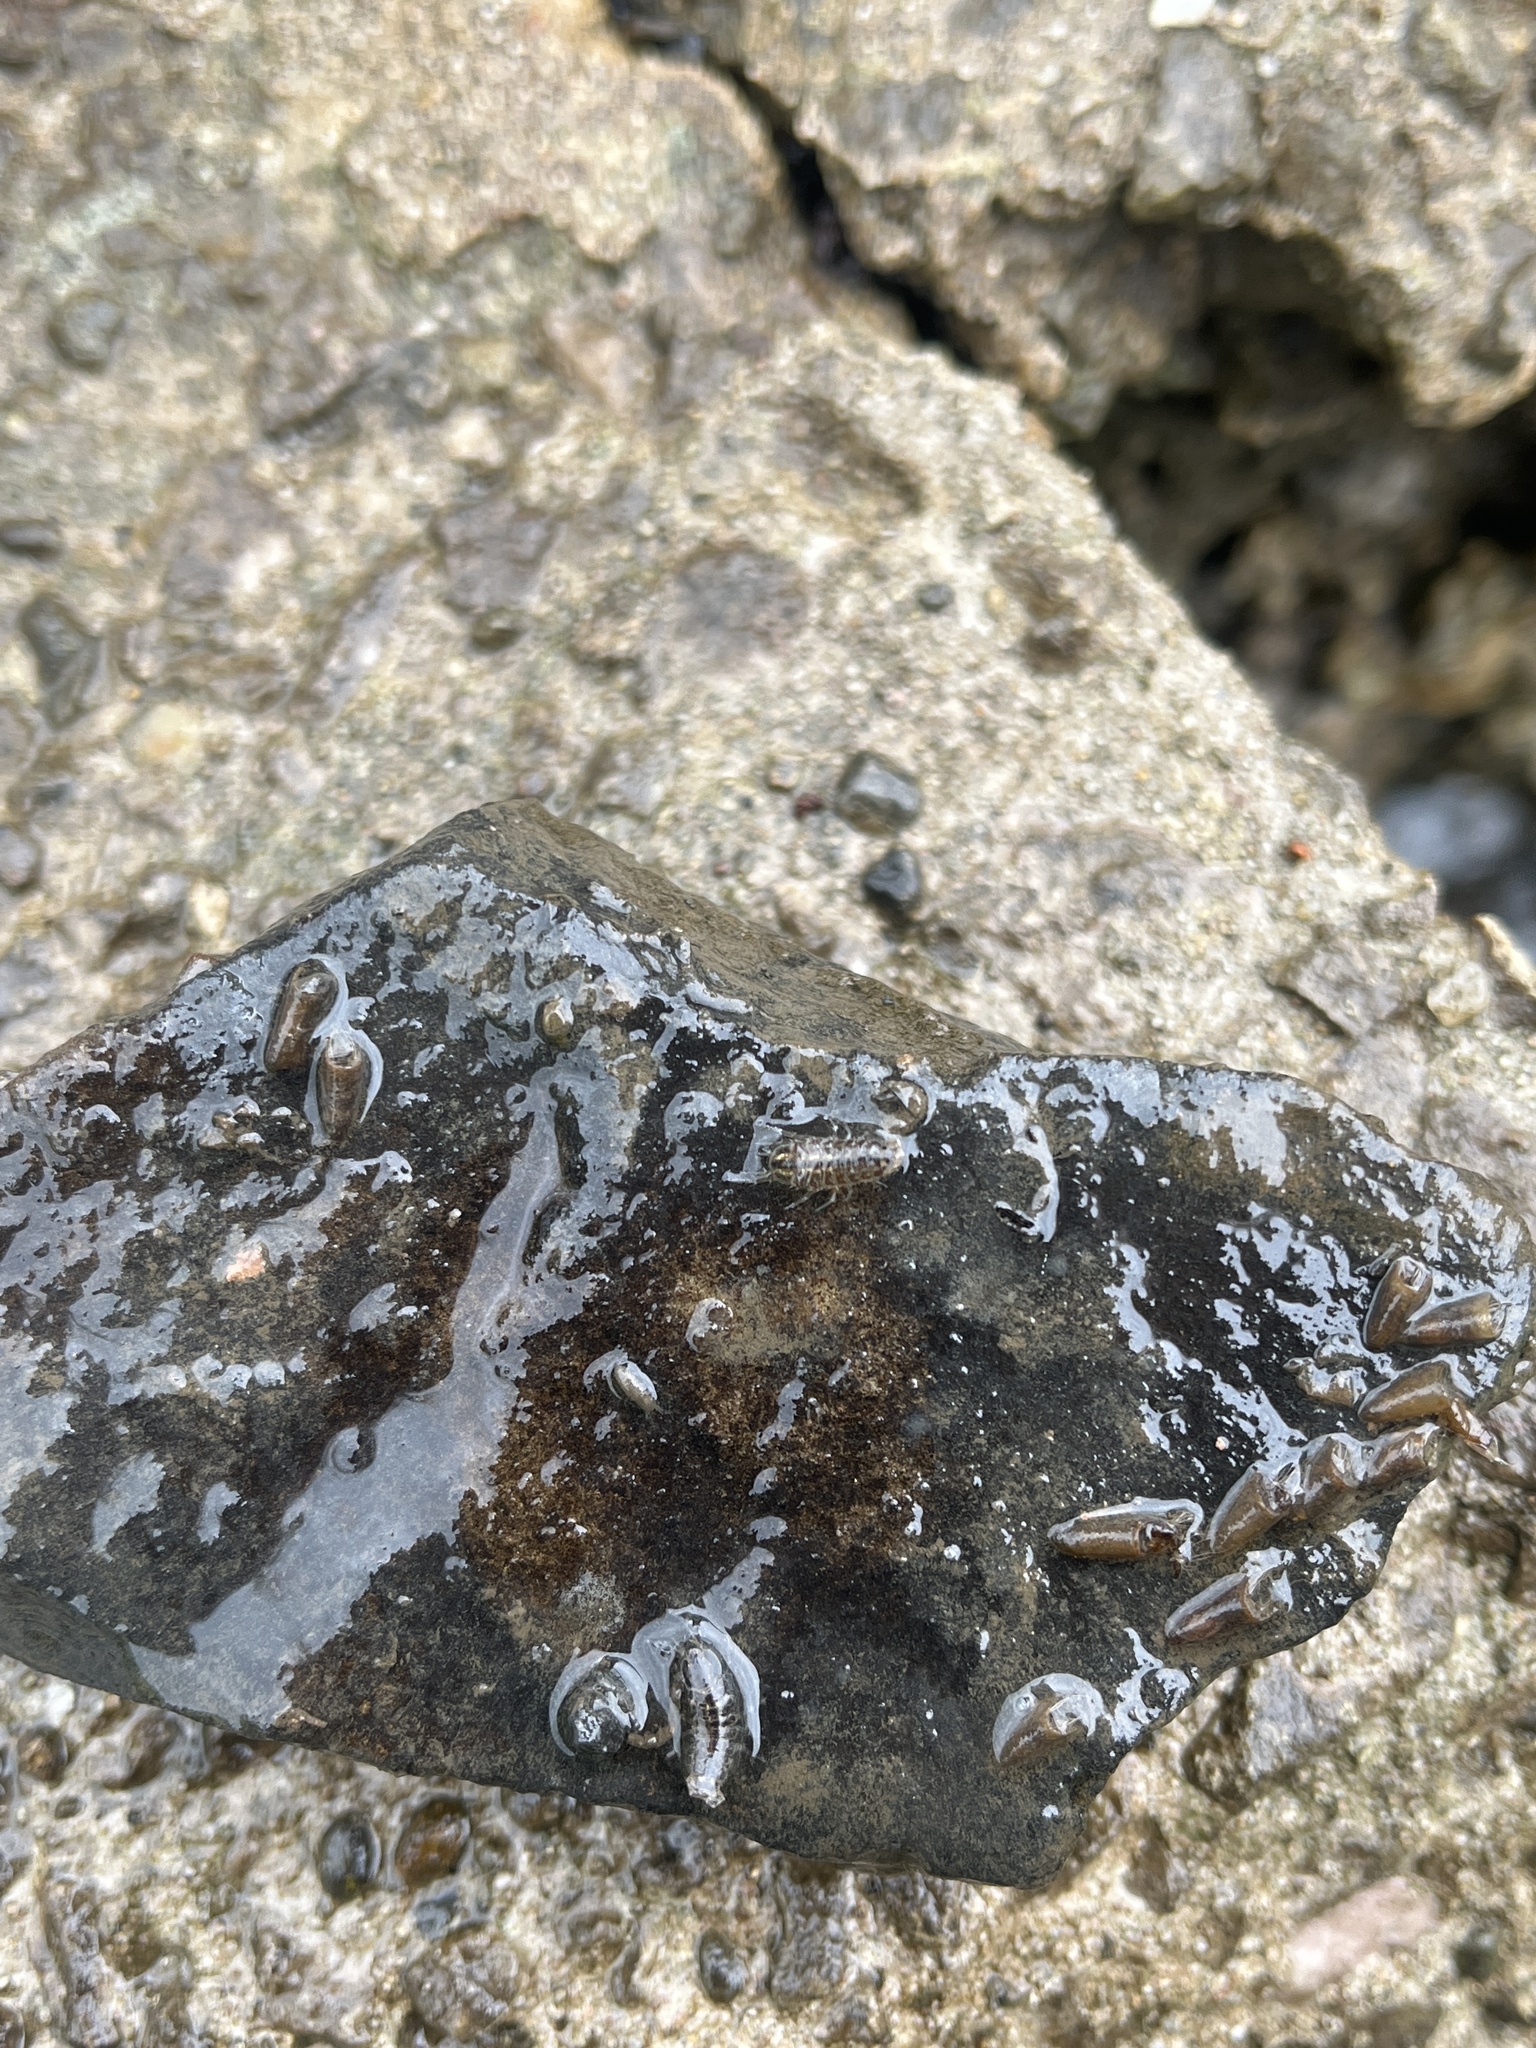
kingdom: Animalia
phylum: Arthropoda
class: Malacostraca
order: Isopoda
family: Asellidae
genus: Asellus
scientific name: Asellus aquaticus
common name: Water hog lice/slaters
